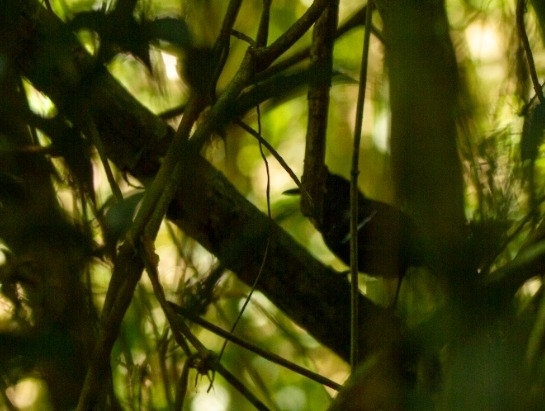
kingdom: Animalia
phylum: Chordata
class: Aves
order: Passeriformes
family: Thamnophilidae
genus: Pyriglena
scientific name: Pyriglena leucoptera
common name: White-shouldered fire-eye
